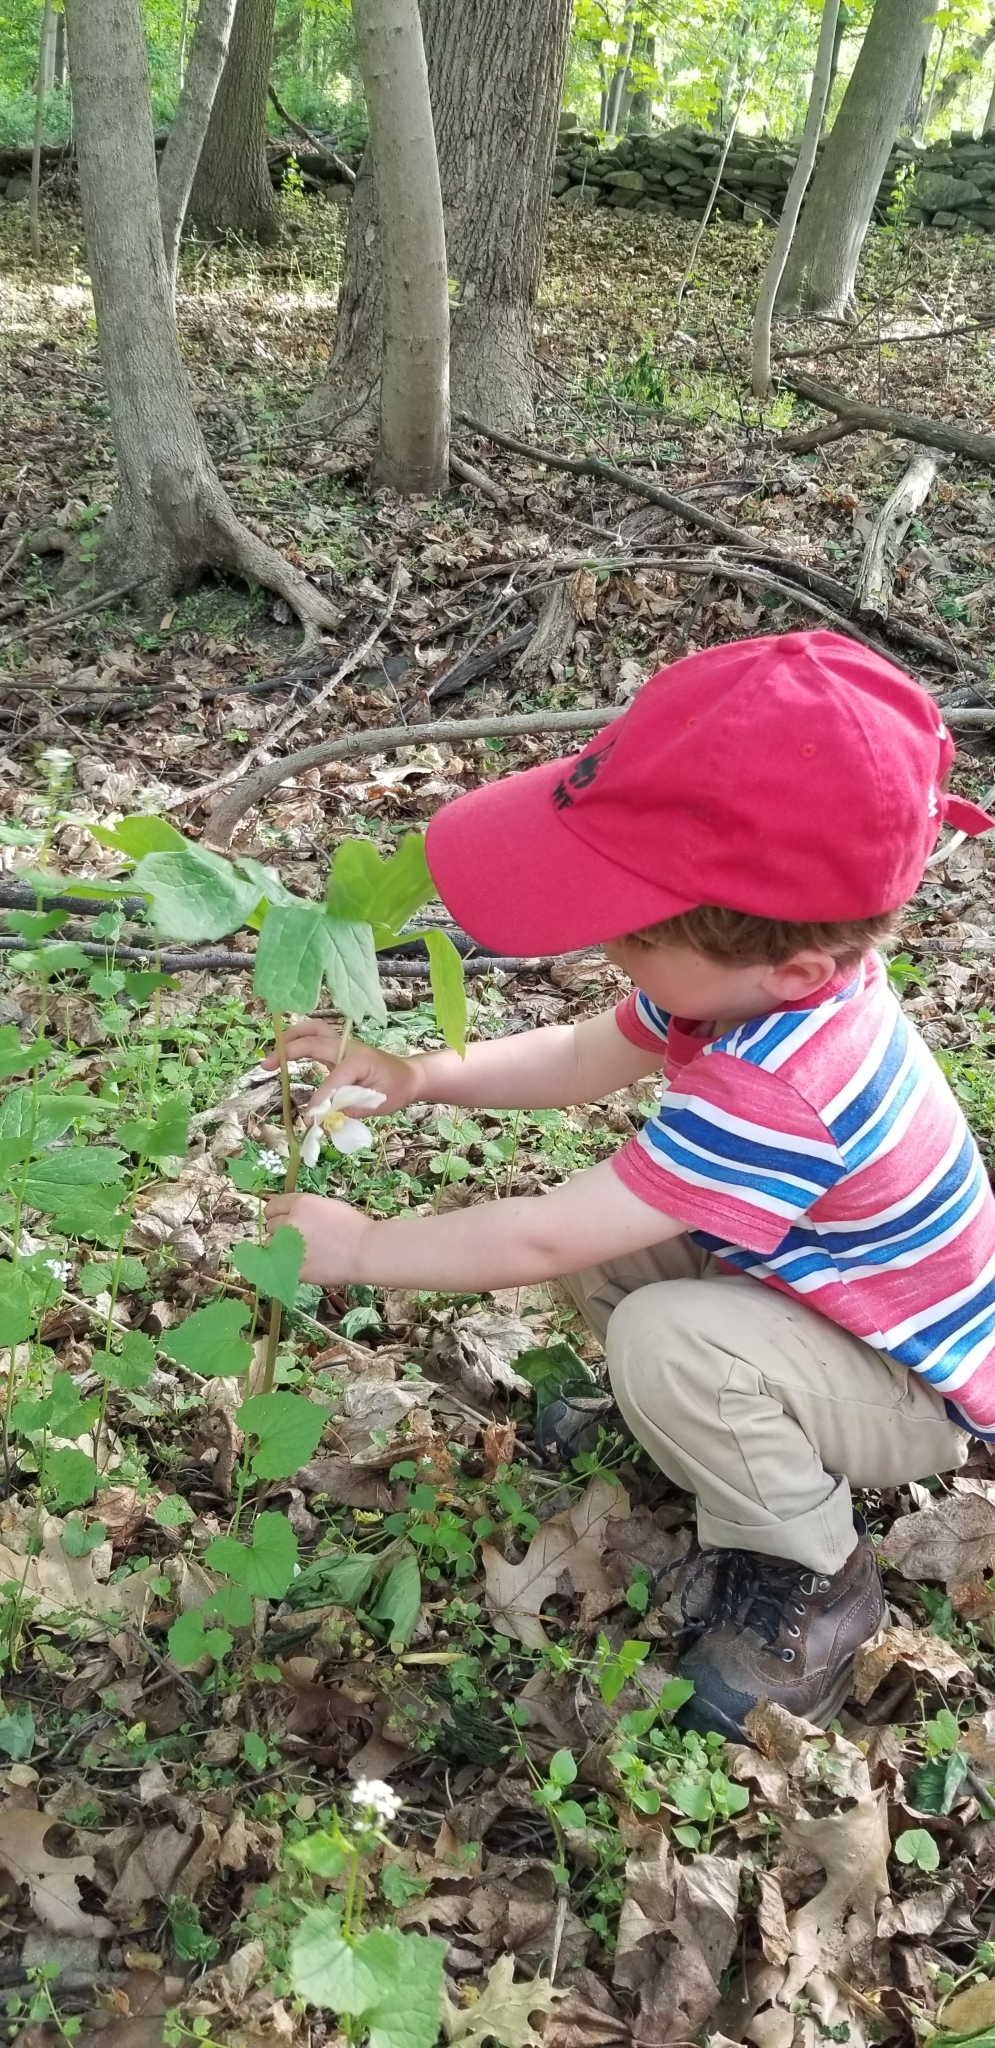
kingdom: Plantae
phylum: Tracheophyta
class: Magnoliopsida
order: Ranunculales
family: Berberidaceae
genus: Podophyllum
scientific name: Podophyllum peltatum
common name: Wild mandrake
